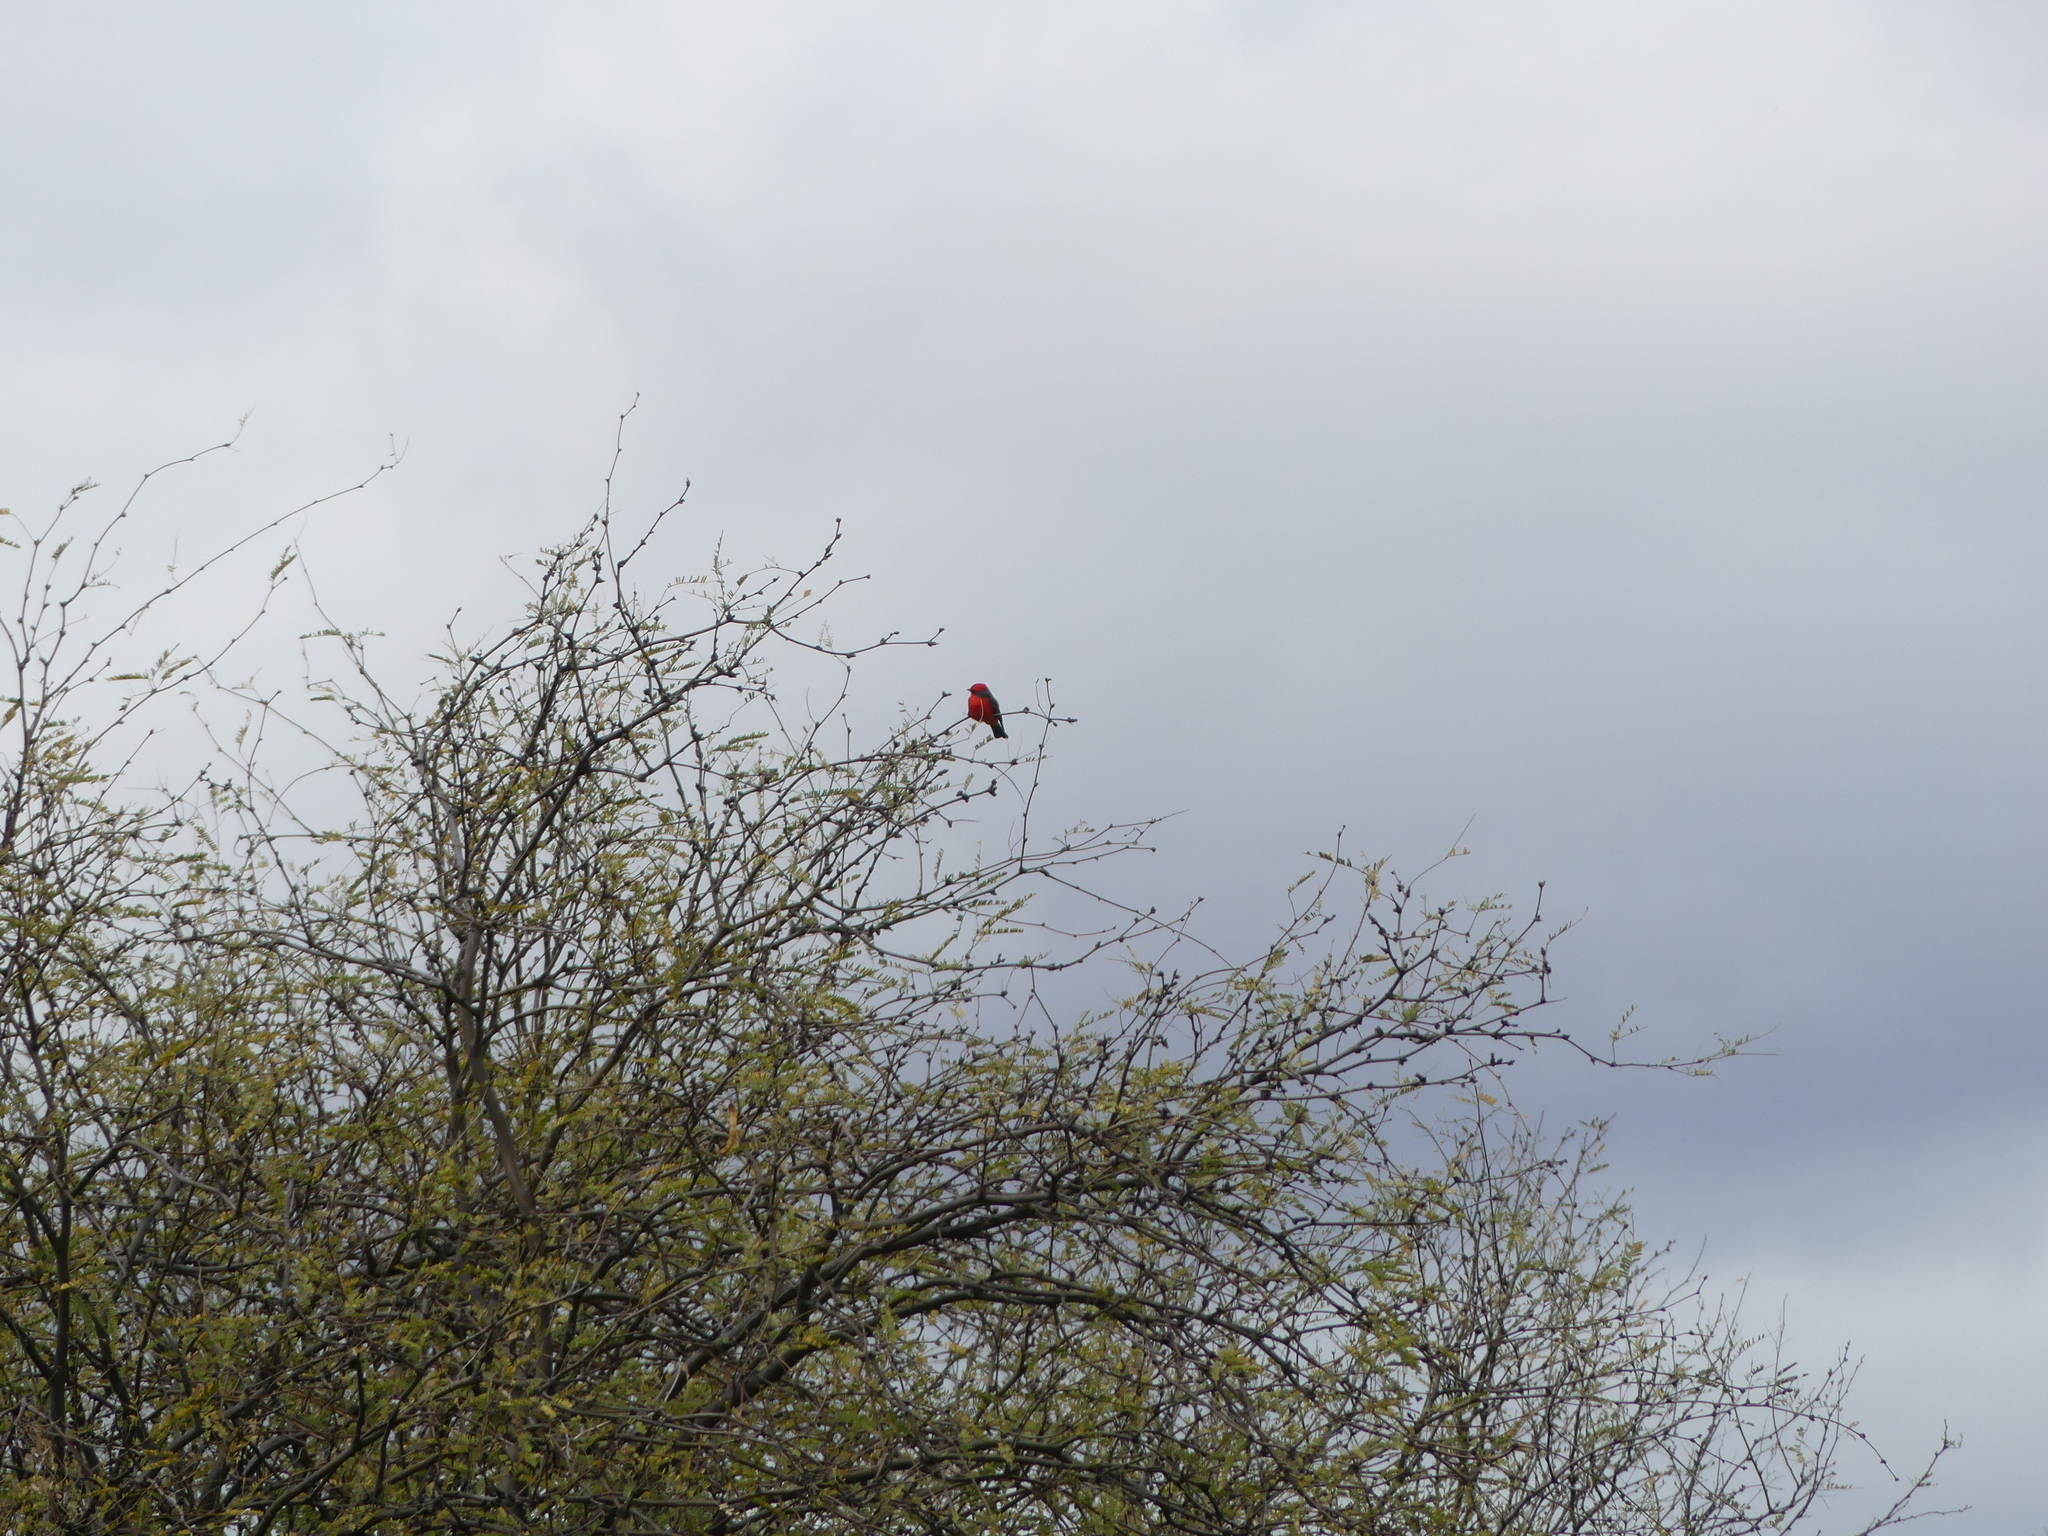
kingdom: Animalia
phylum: Chordata
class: Aves
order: Passeriformes
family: Tyrannidae
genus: Pyrocephalus
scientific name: Pyrocephalus rubinus
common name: Vermilion flycatcher
